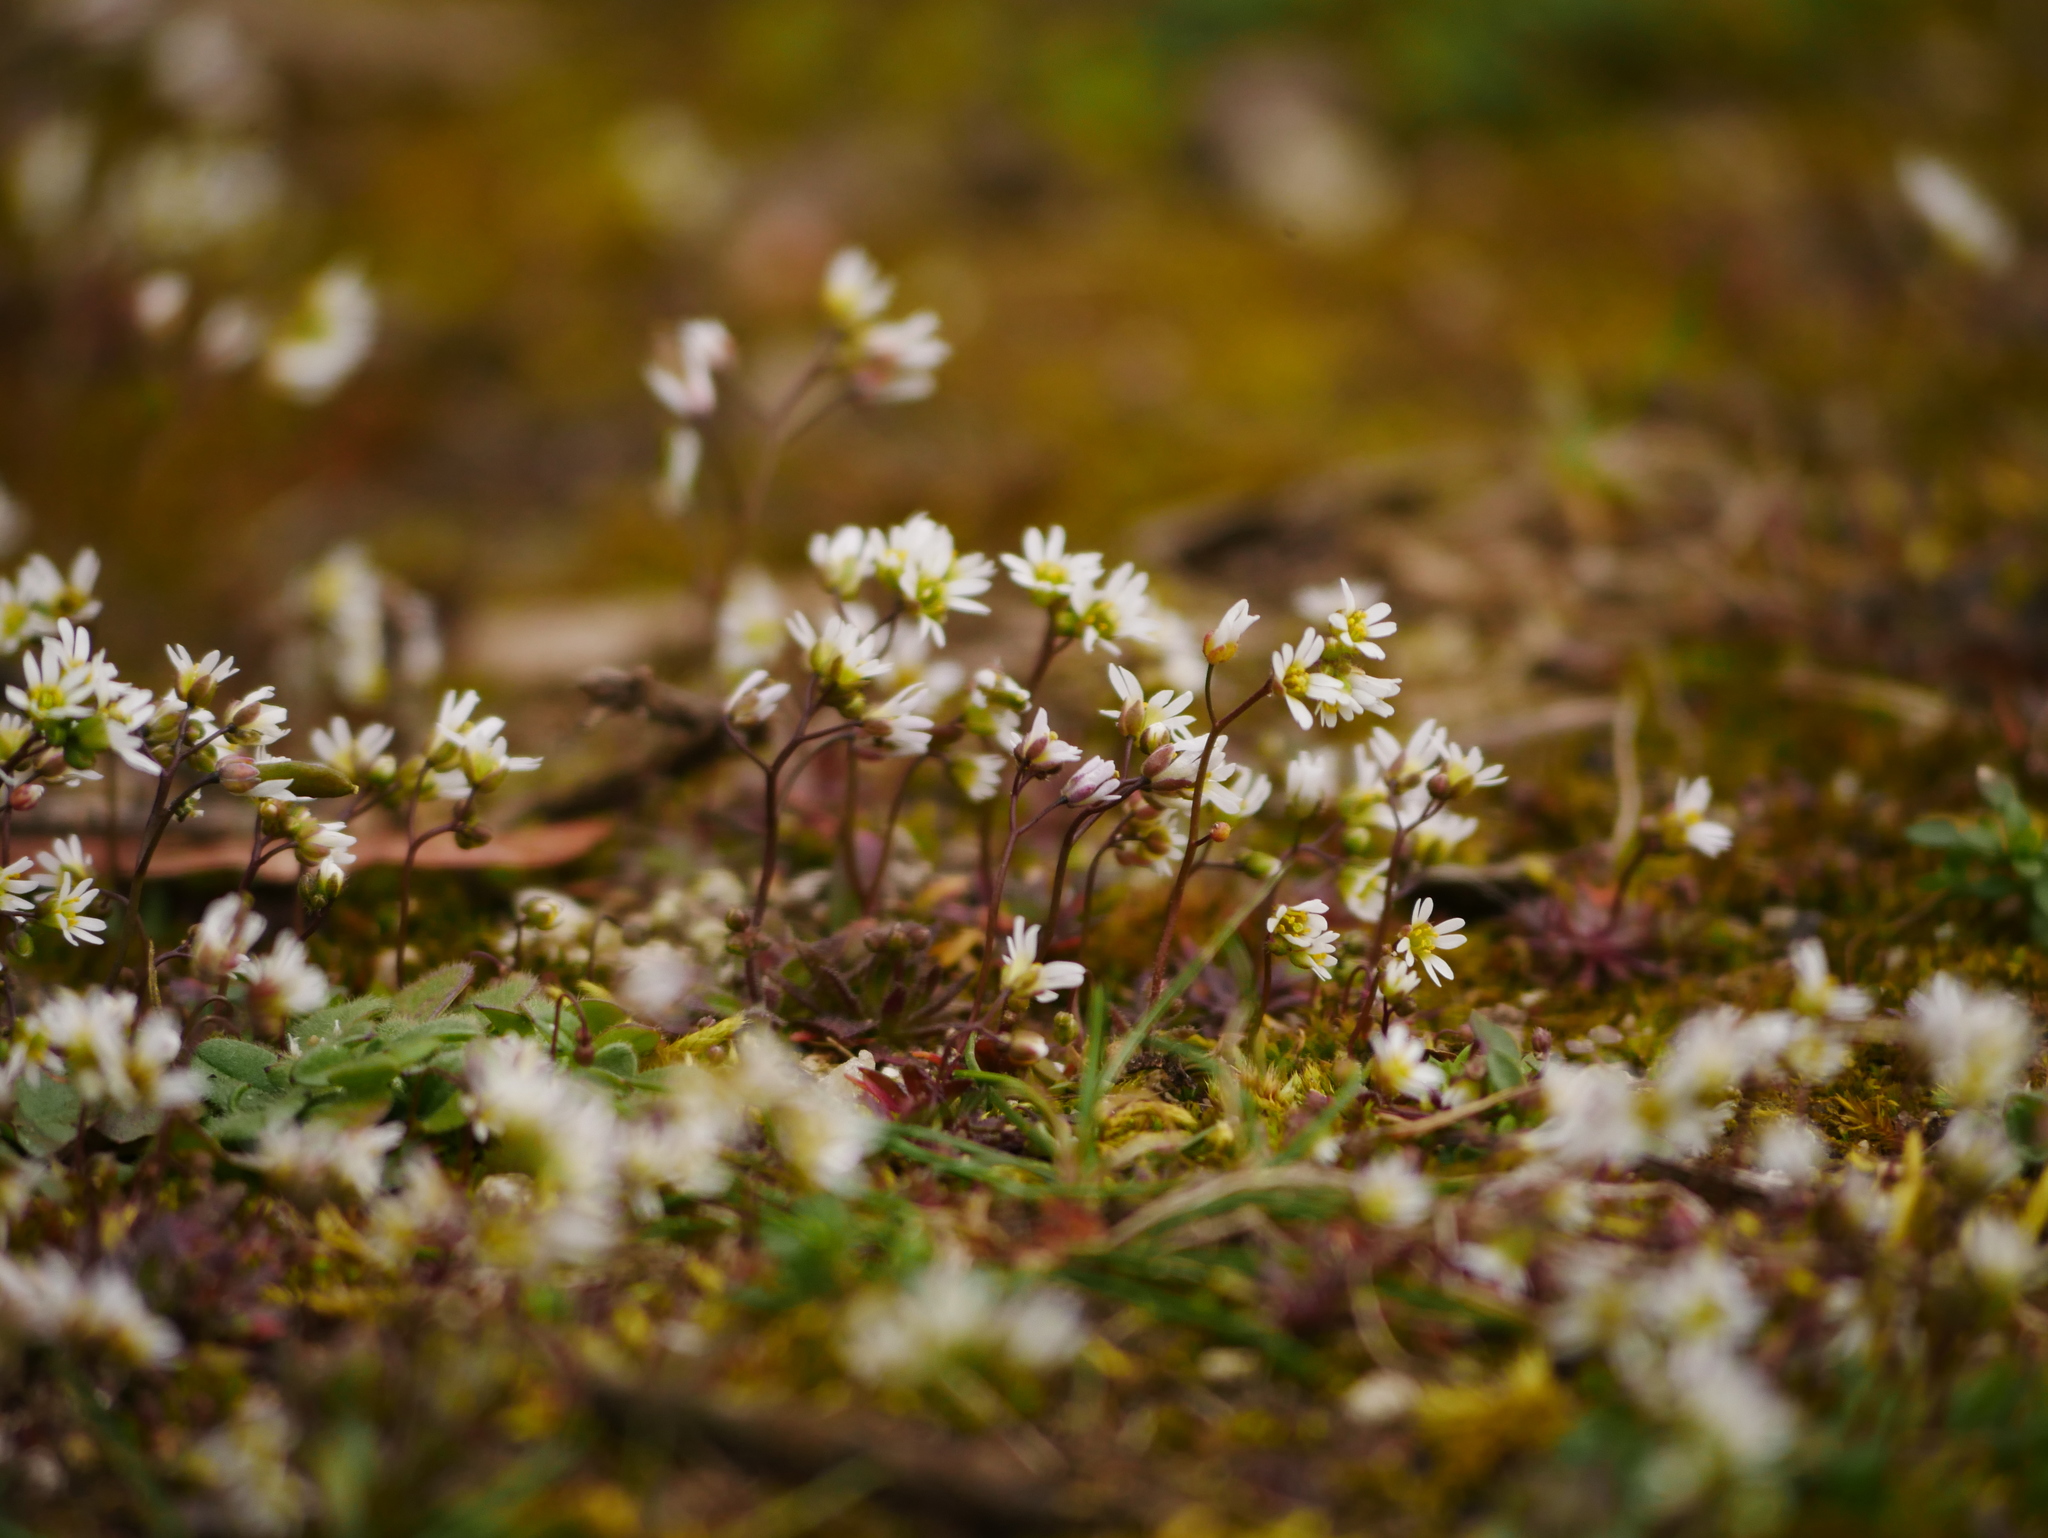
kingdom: Plantae
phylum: Tracheophyta
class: Magnoliopsida
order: Brassicales
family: Brassicaceae
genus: Draba
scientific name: Draba verna
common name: Spring draba
